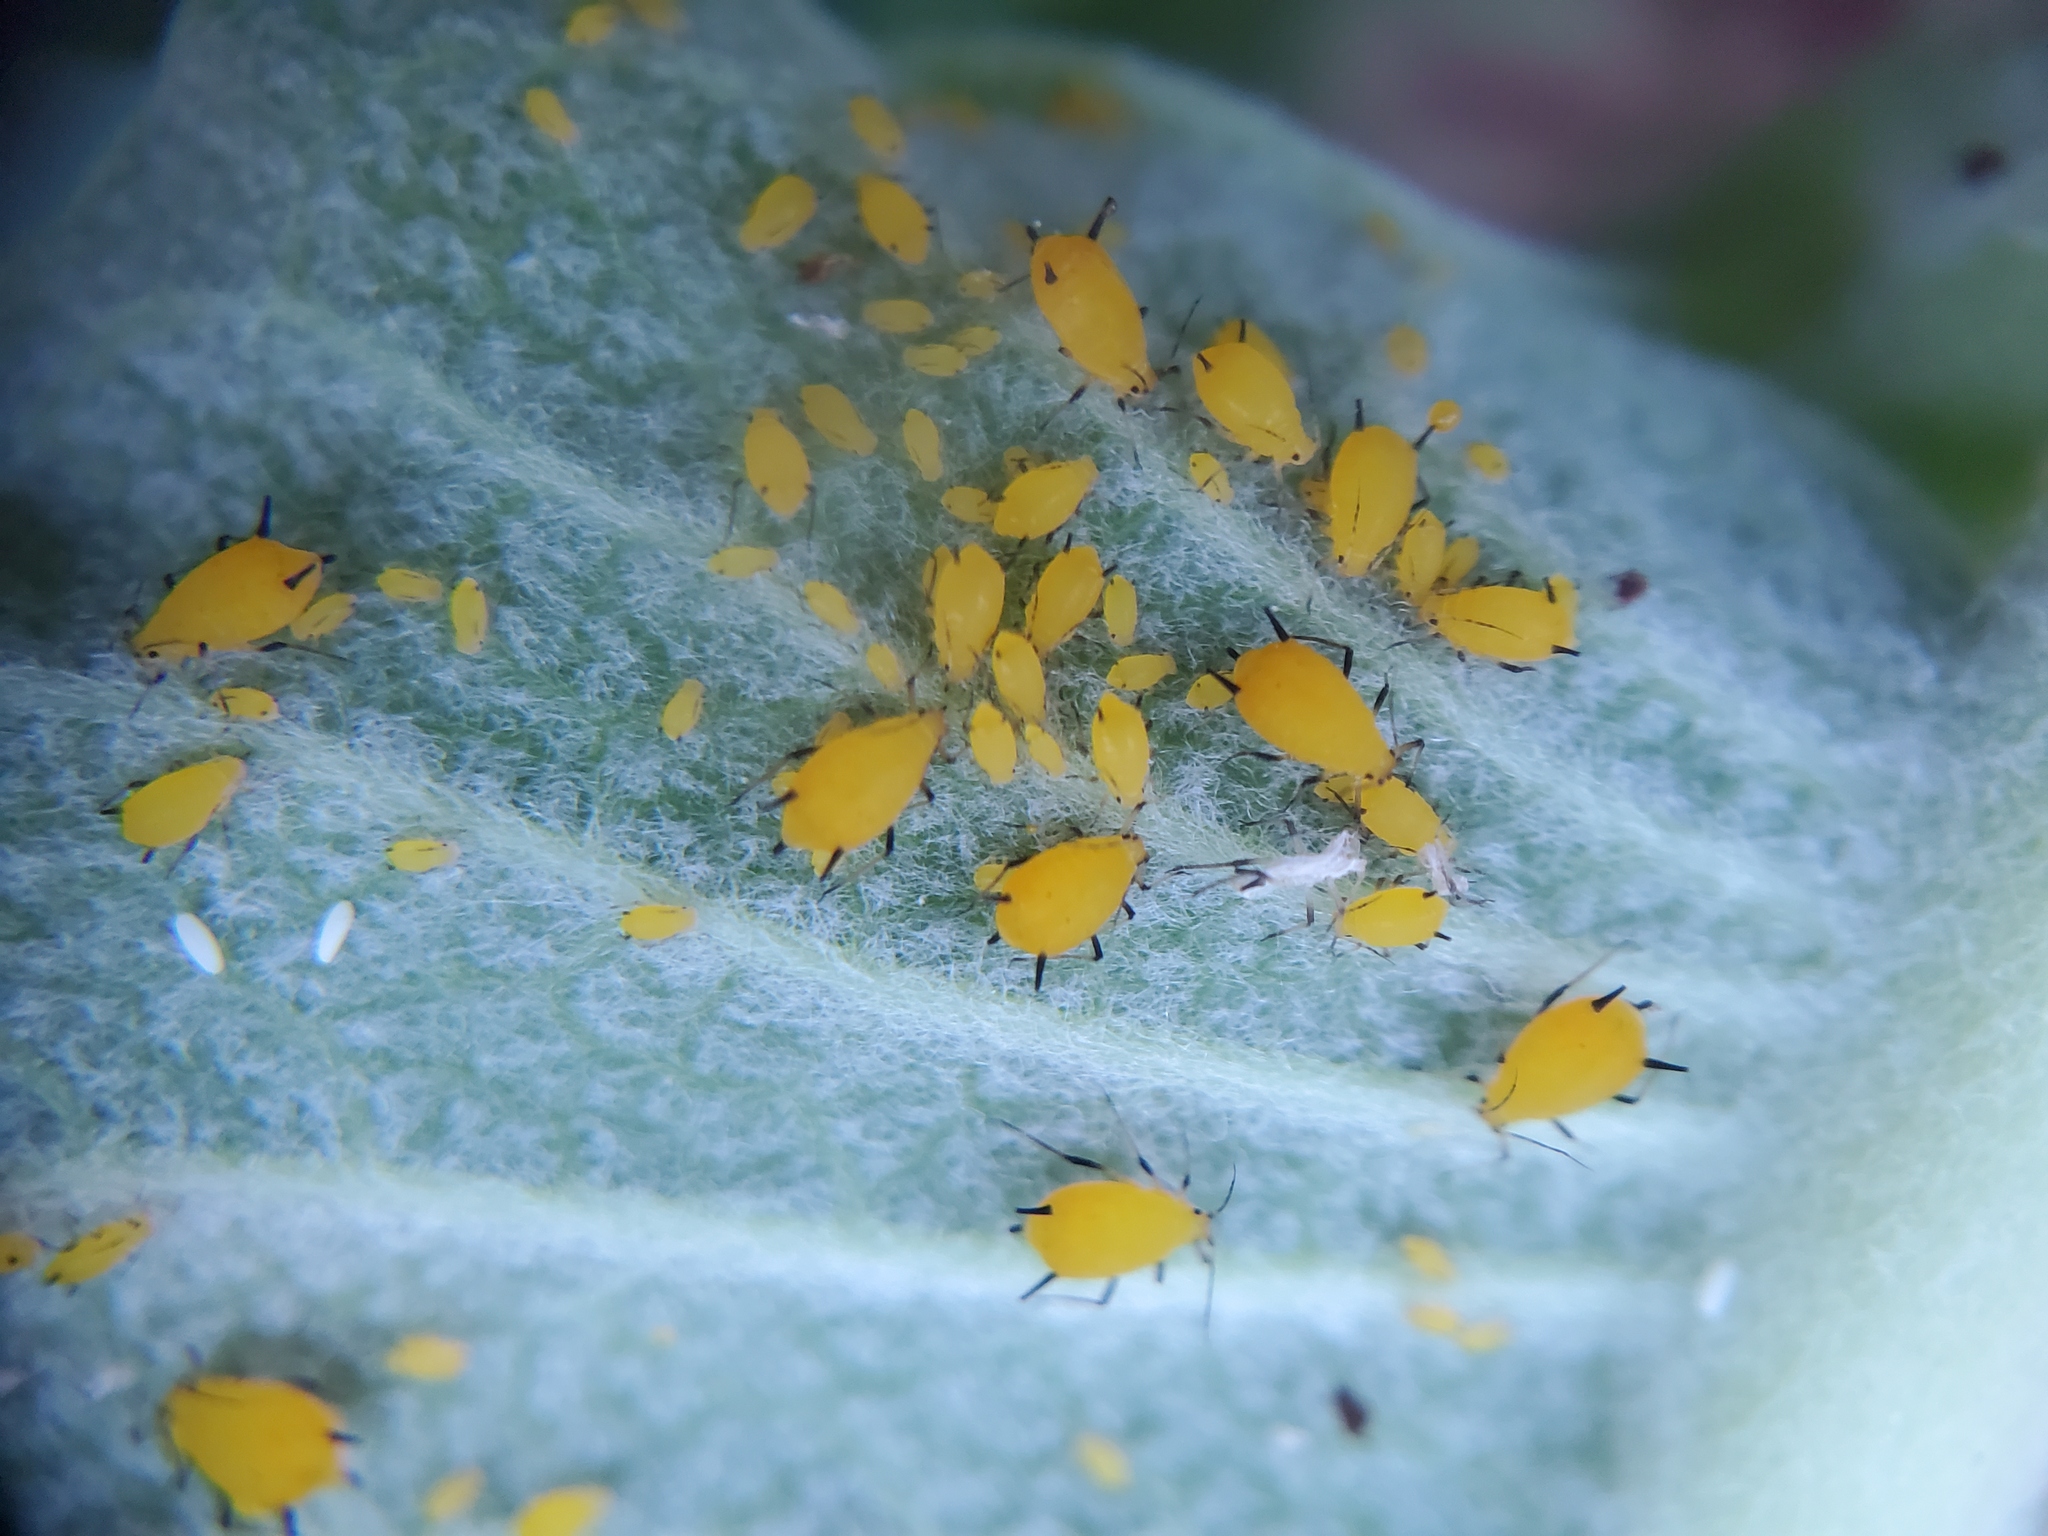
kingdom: Animalia
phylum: Arthropoda
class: Insecta
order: Hemiptera
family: Aphididae
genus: Aphis
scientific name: Aphis nerii
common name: Oleander aphid
